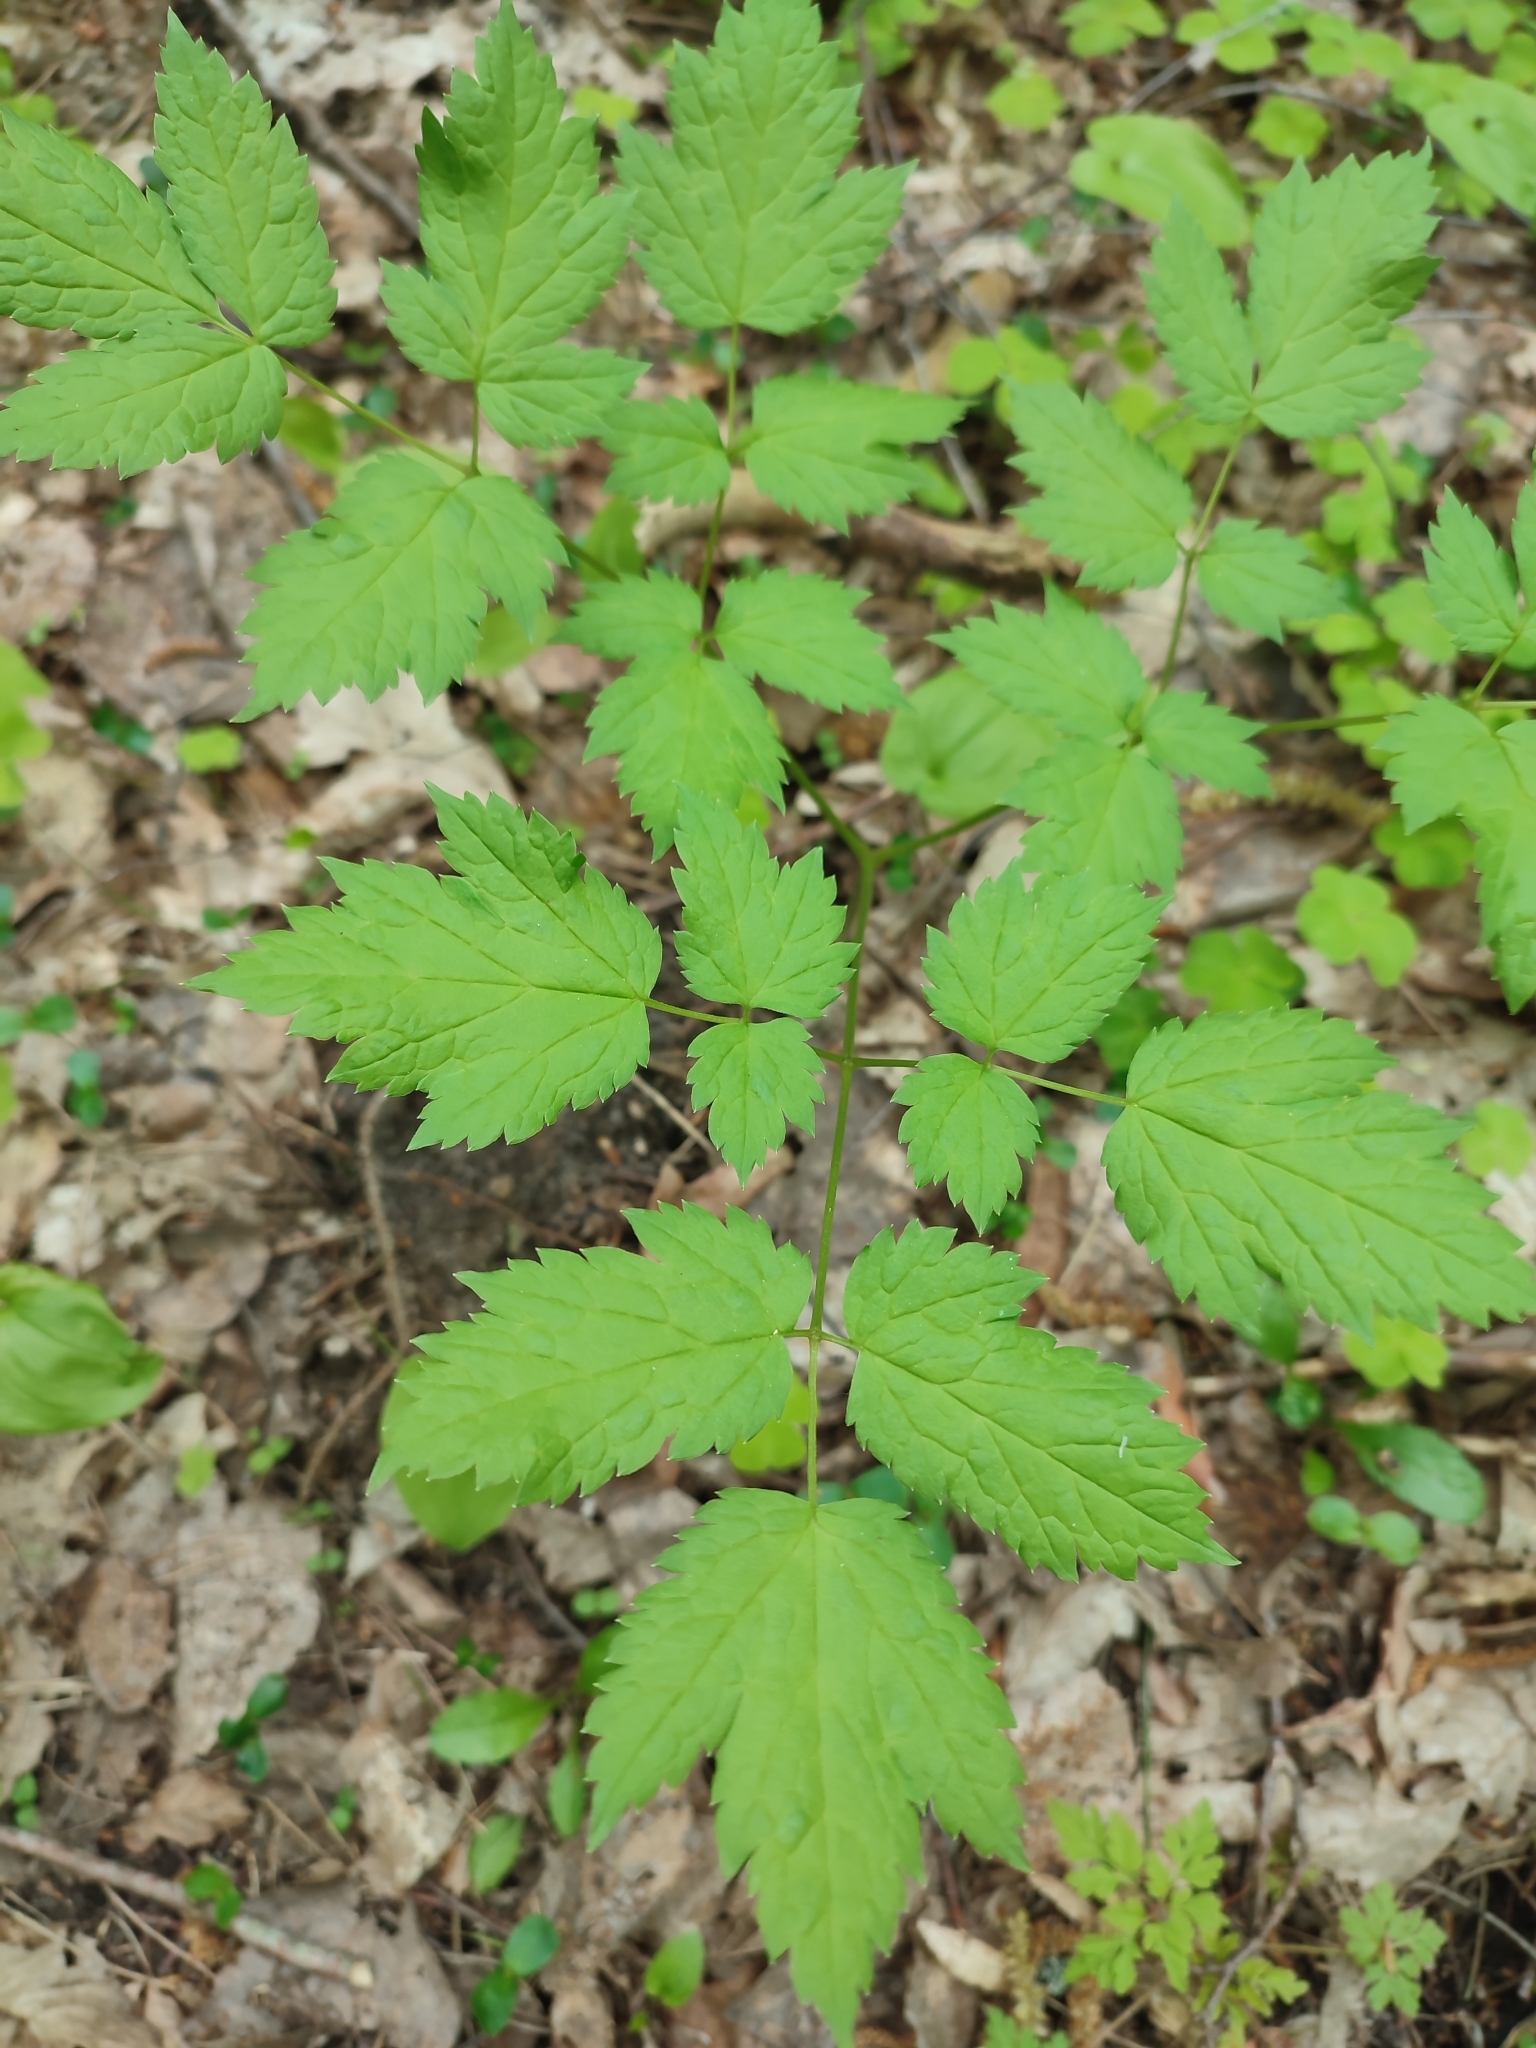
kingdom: Plantae
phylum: Tracheophyta
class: Magnoliopsida
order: Ranunculales
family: Ranunculaceae
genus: Actaea
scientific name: Actaea spicata
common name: Baneberry
